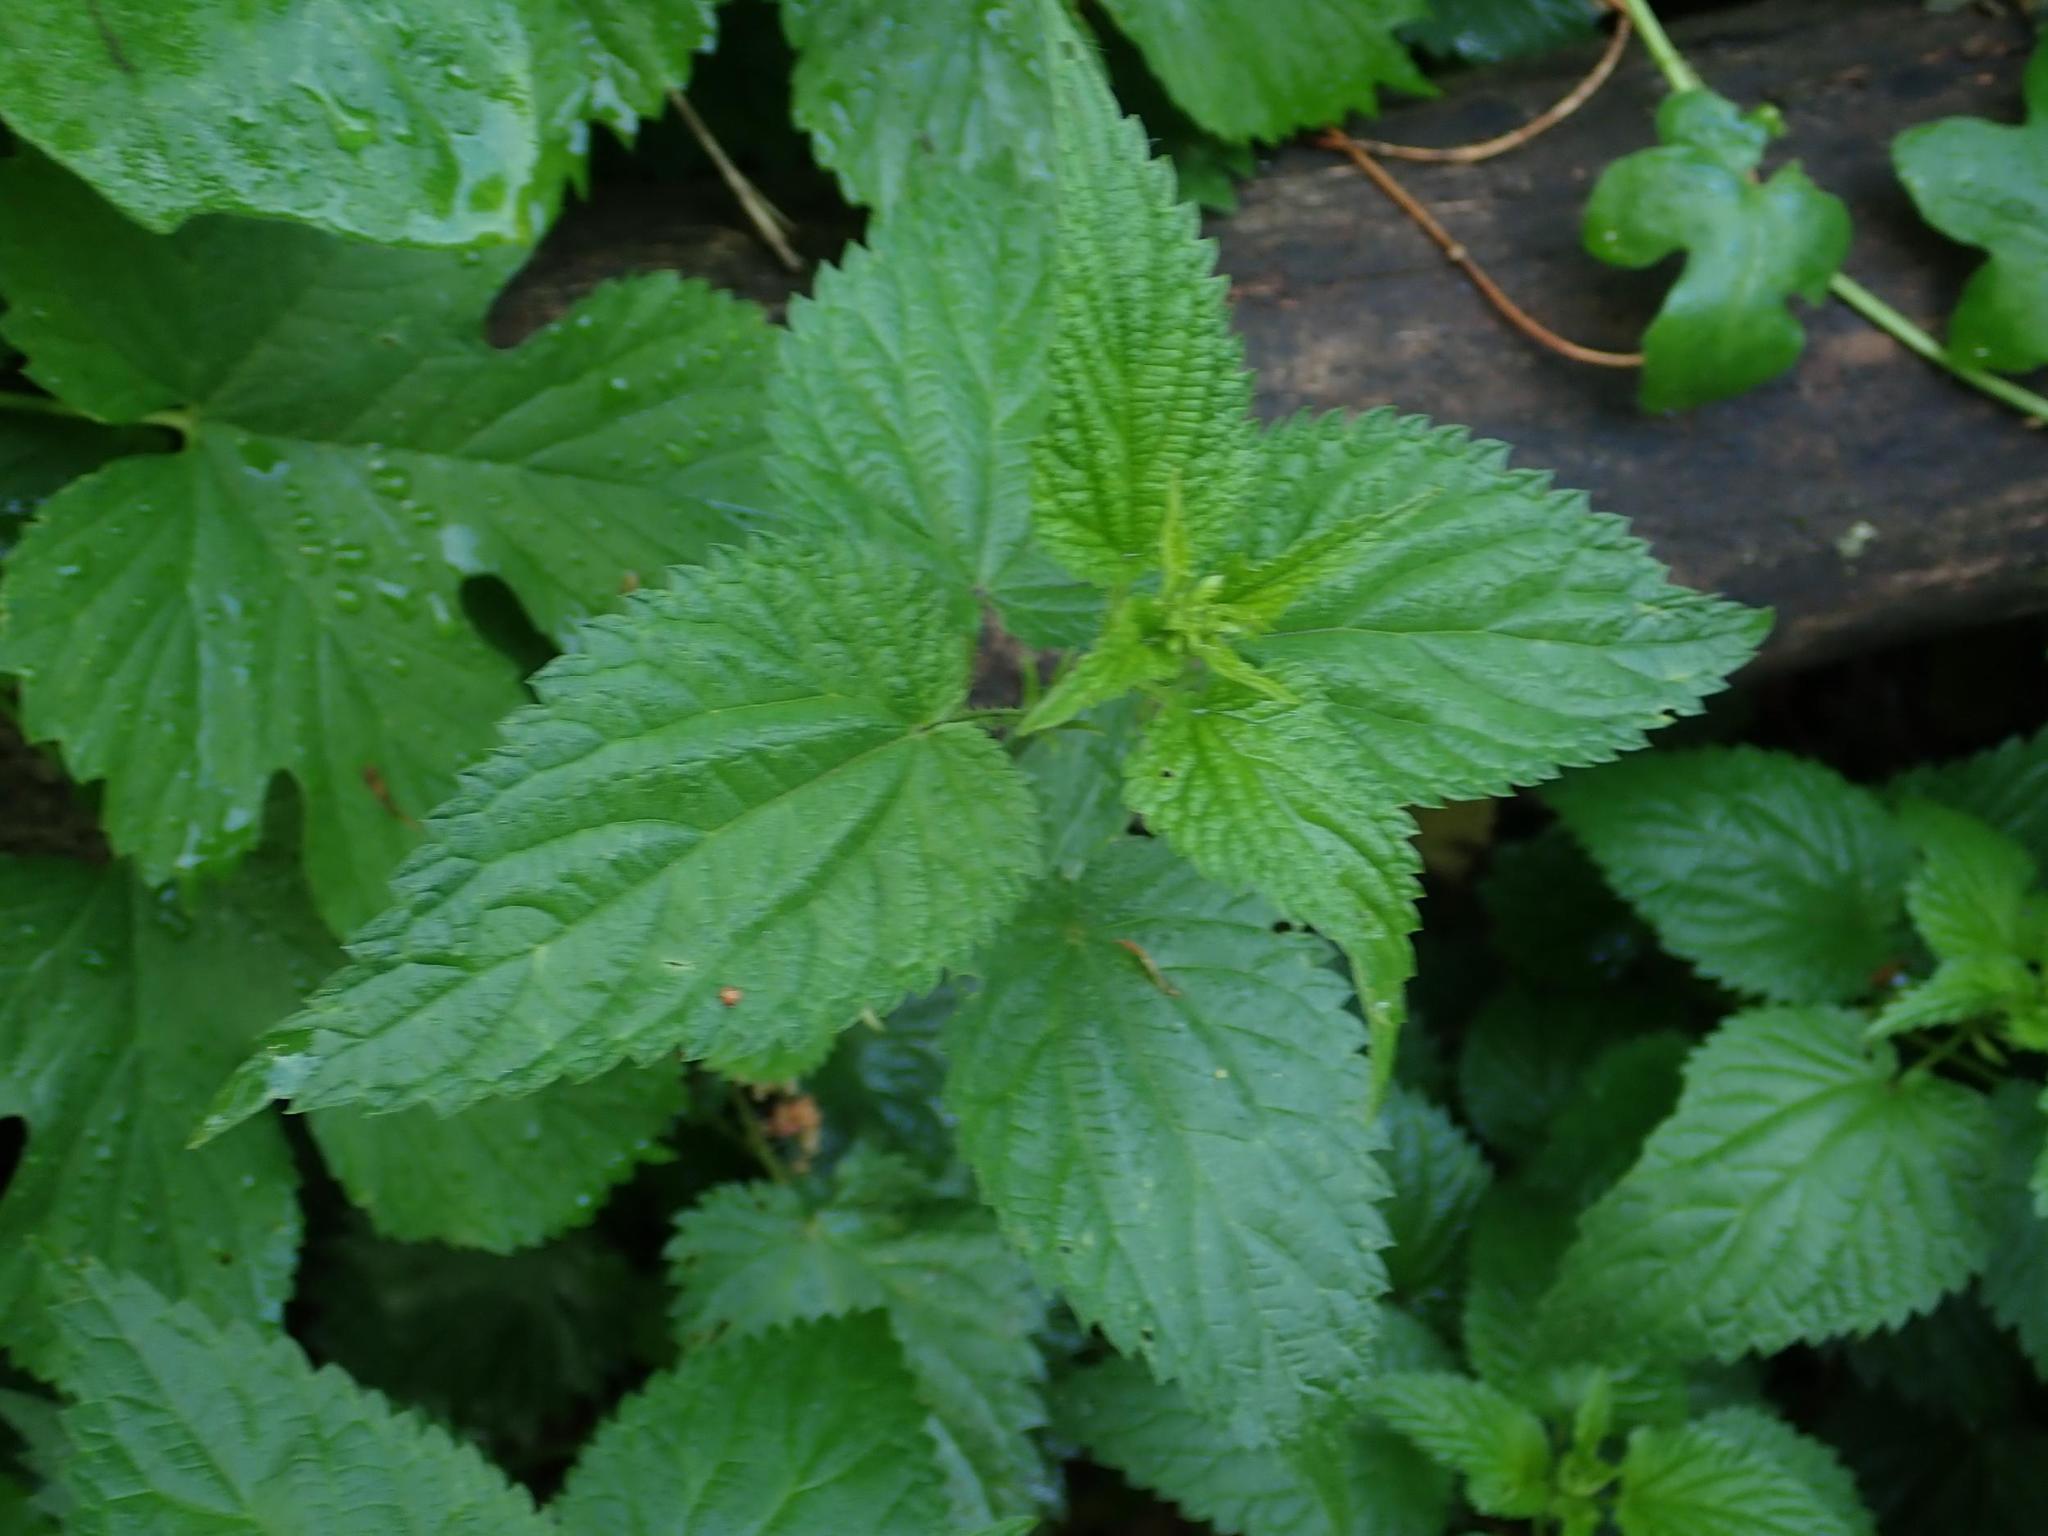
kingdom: Plantae
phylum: Tracheophyta
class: Magnoliopsida
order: Rosales
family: Urticaceae
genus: Urtica
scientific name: Urtica dioica
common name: Common nettle
